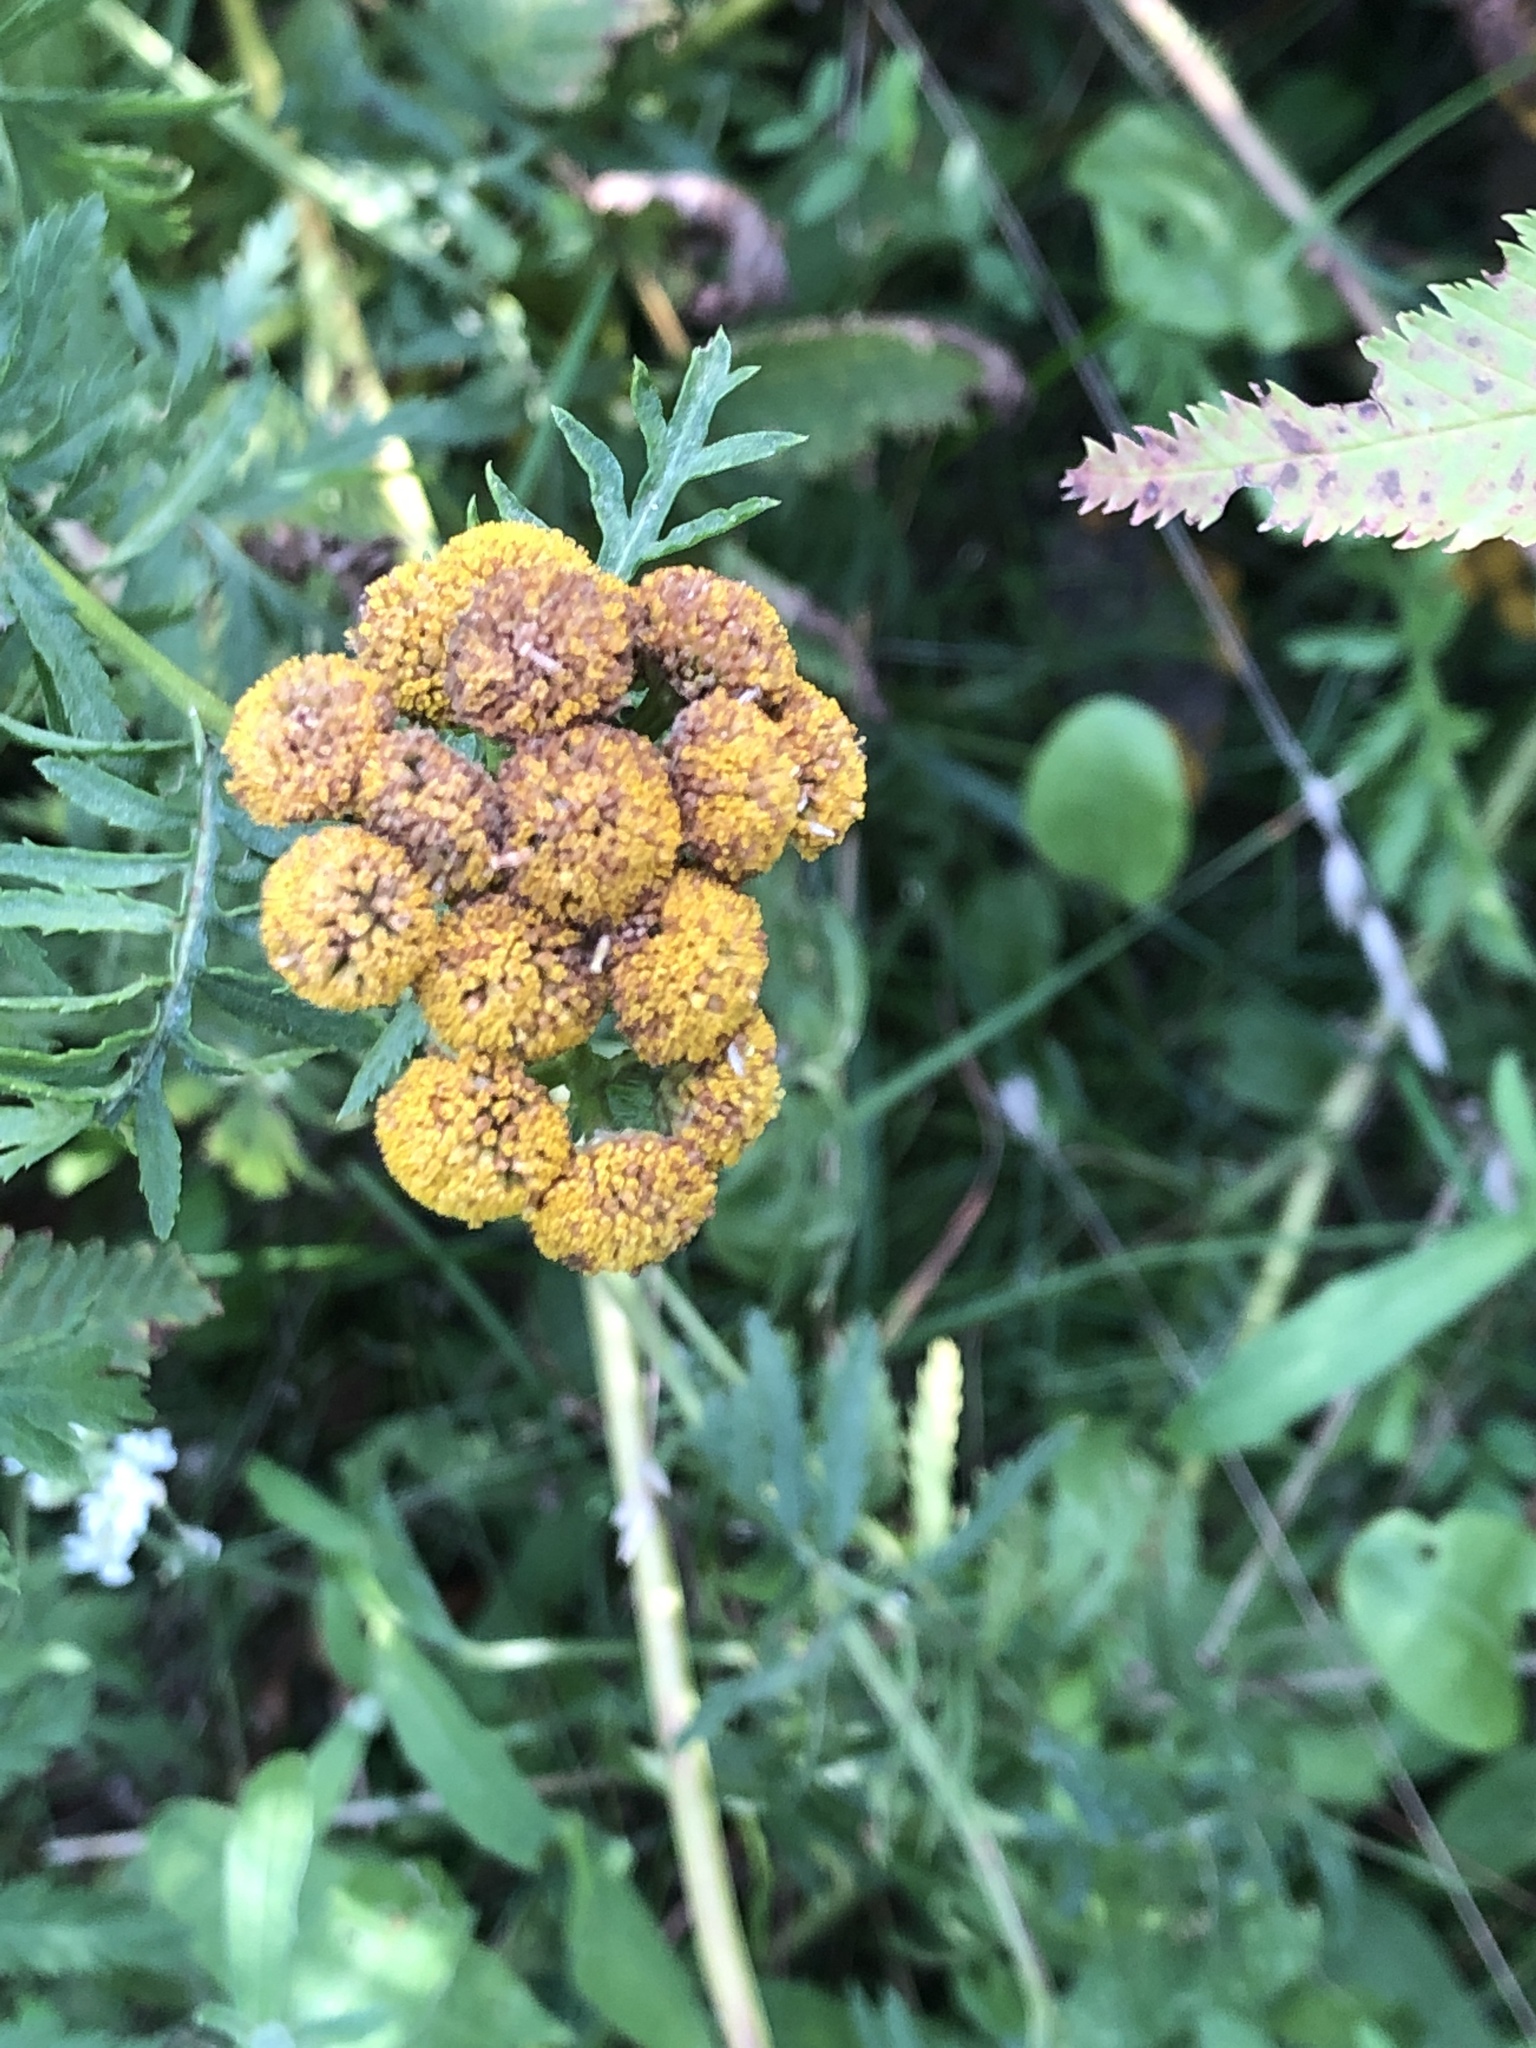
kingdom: Plantae
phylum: Tracheophyta
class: Magnoliopsida
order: Asterales
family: Asteraceae
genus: Tanacetum
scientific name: Tanacetum vulgare
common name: Common tansy
